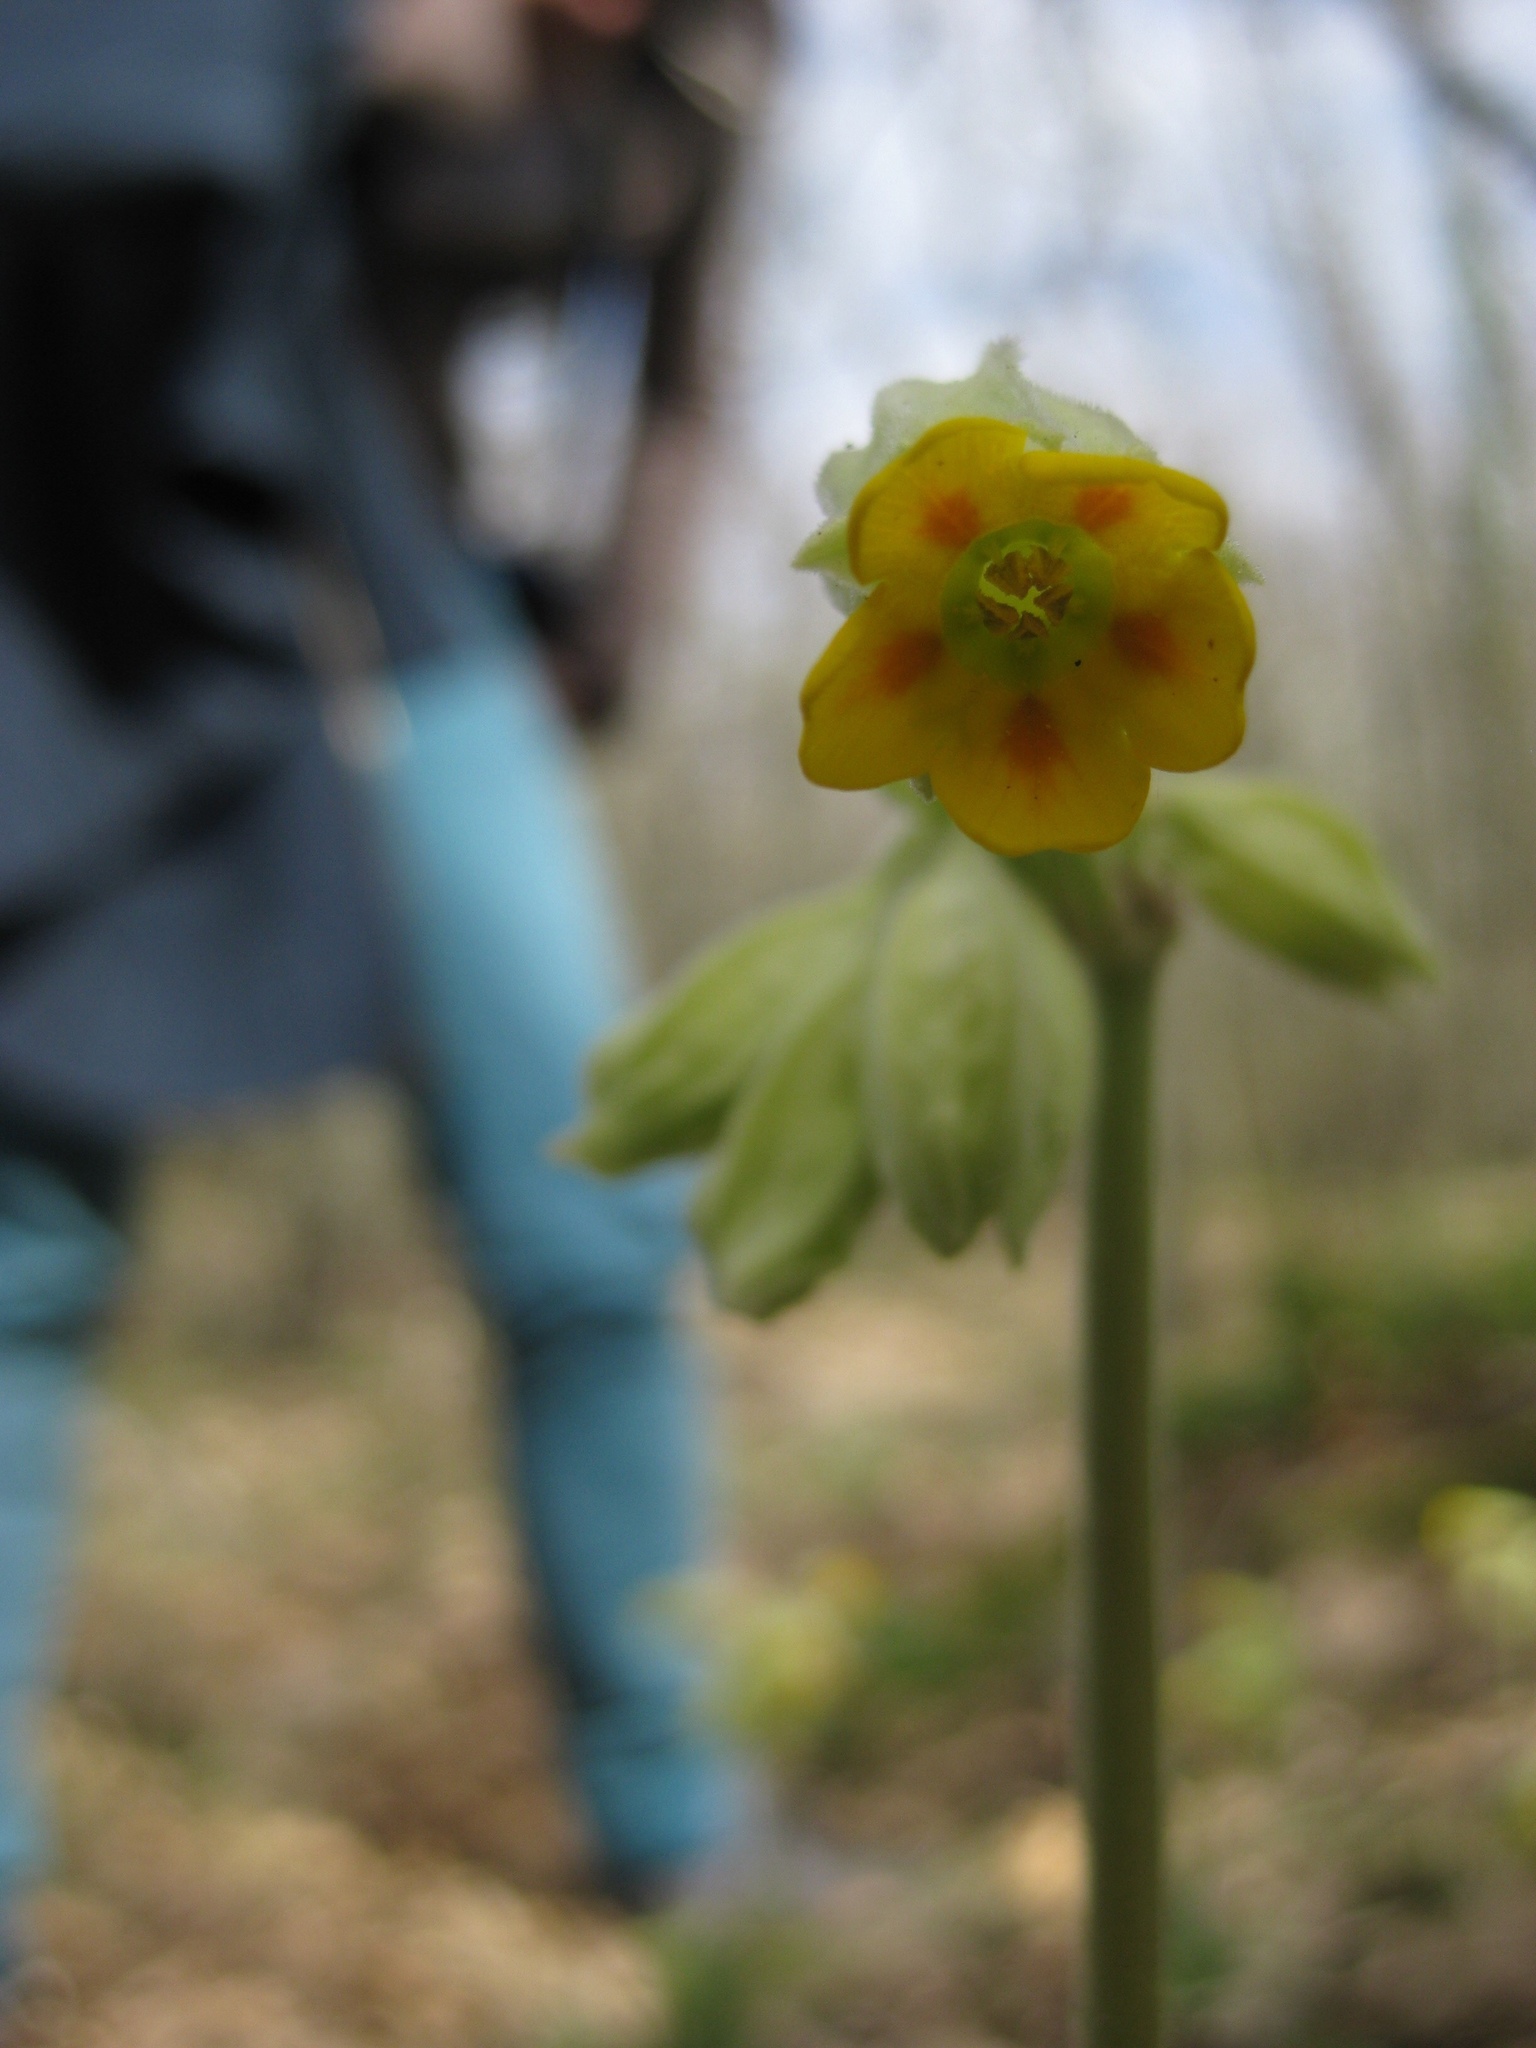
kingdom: Plantae
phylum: Tracheophyta
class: Magnoliopsida
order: Ericales
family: Primulaceae
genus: Primula
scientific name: Primula veris
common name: Cowslip
